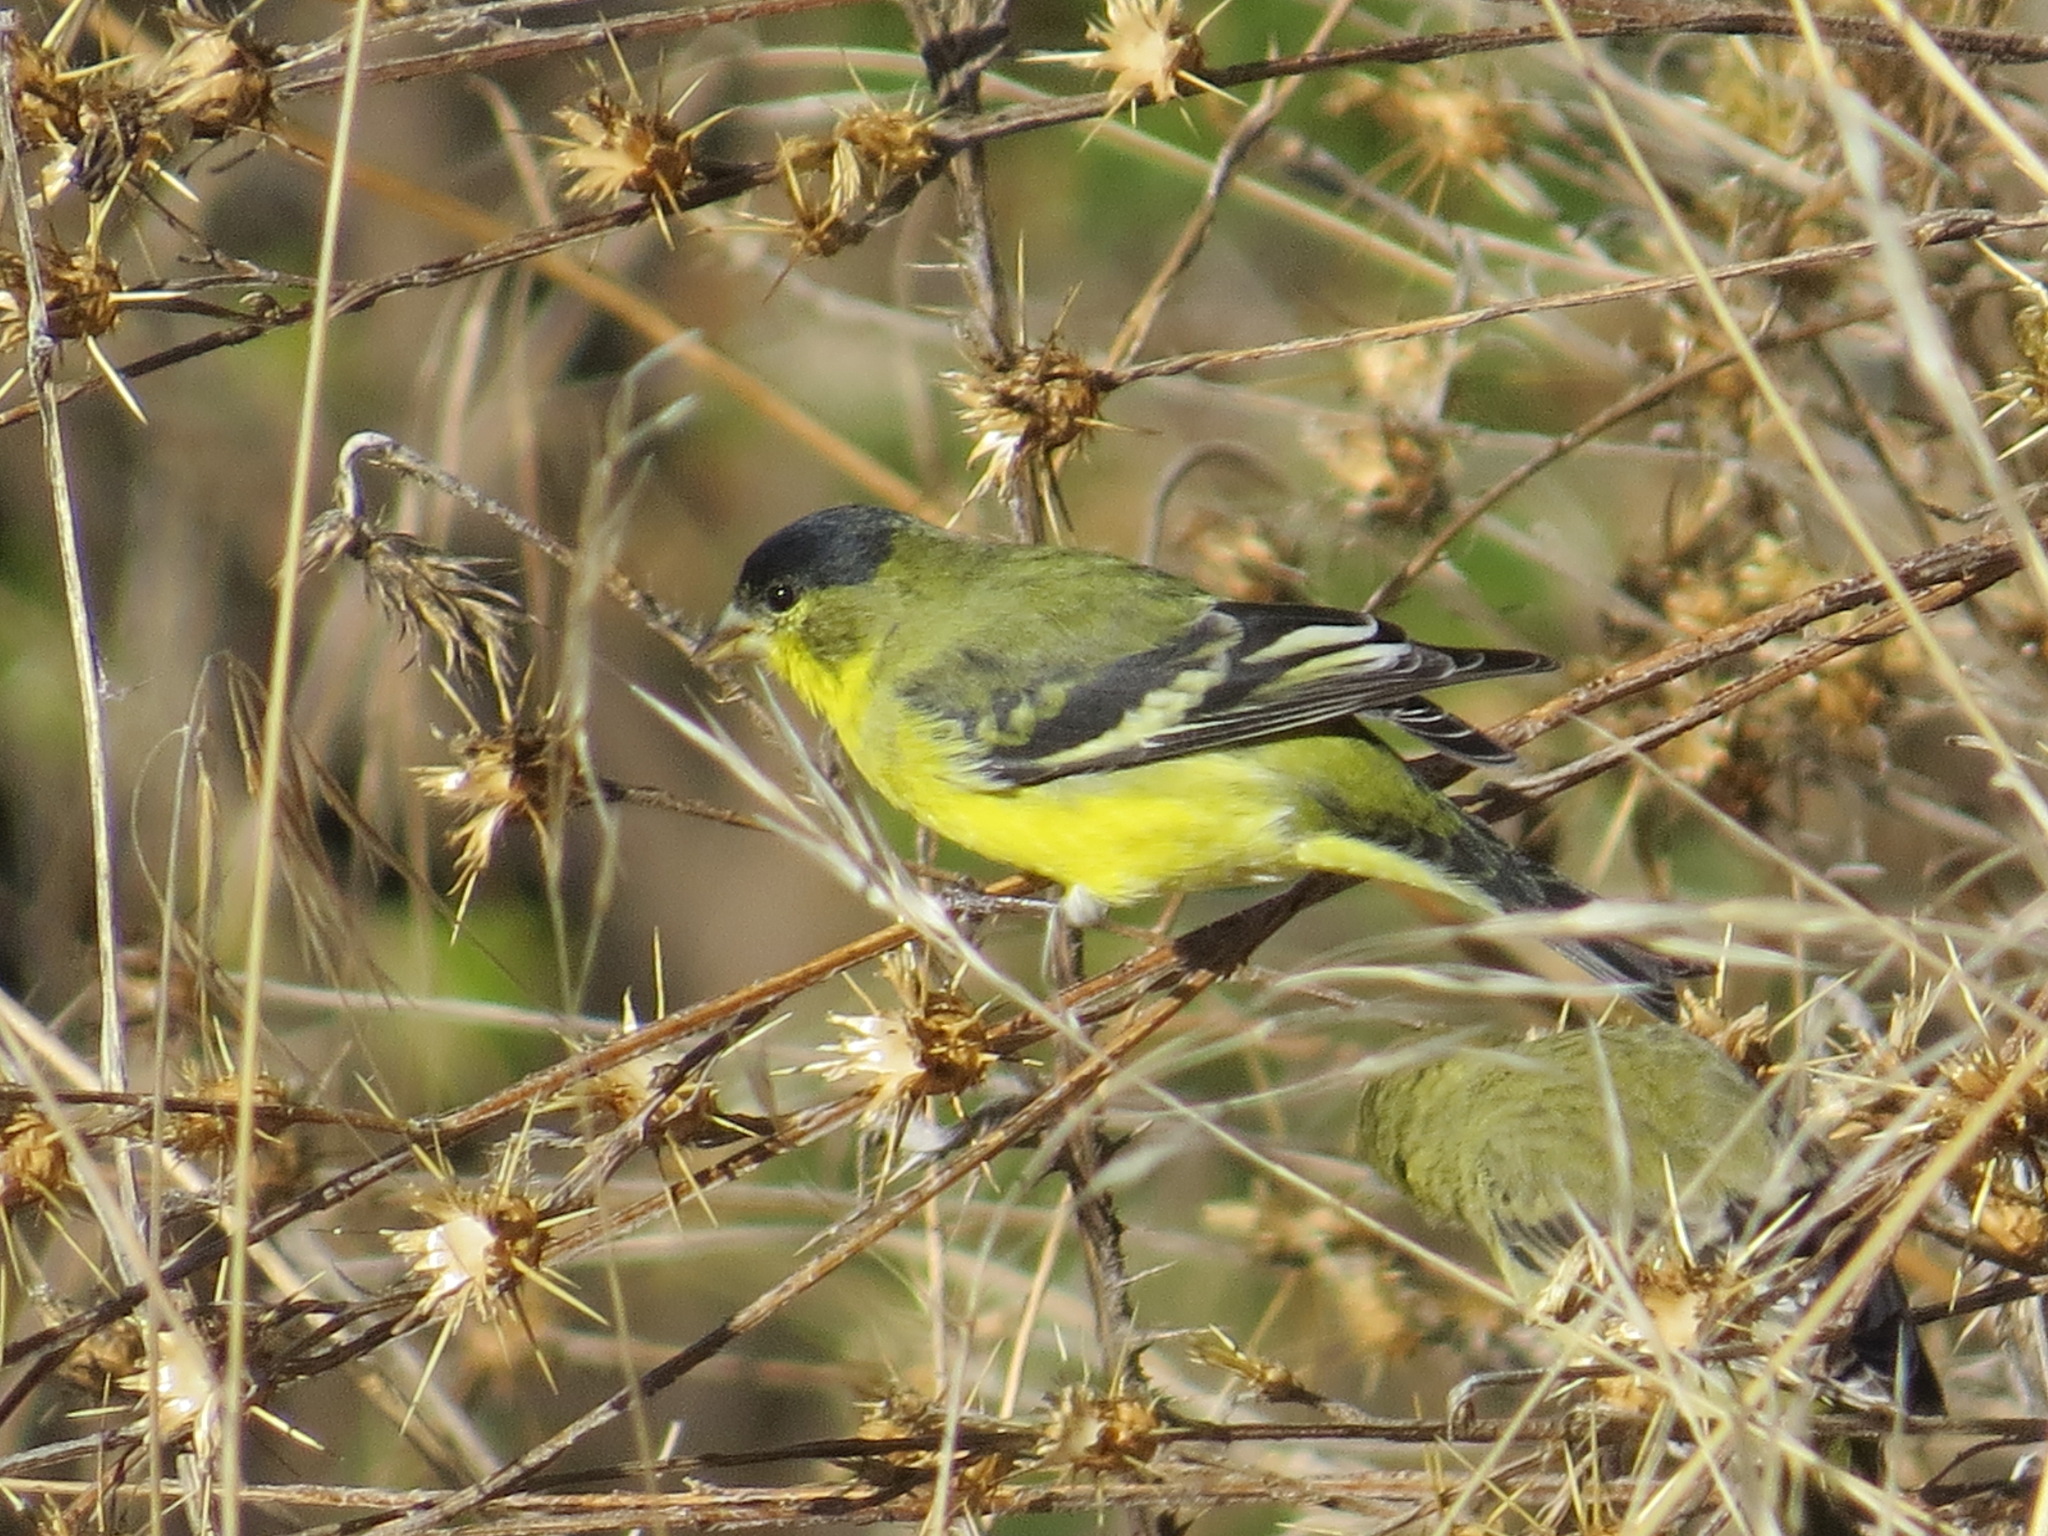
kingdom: Animalia
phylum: Chordata
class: Aves
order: Passeriformes
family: Fringillidae
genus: Spinus
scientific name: Spinus psaltria
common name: Lesser goldfinch
